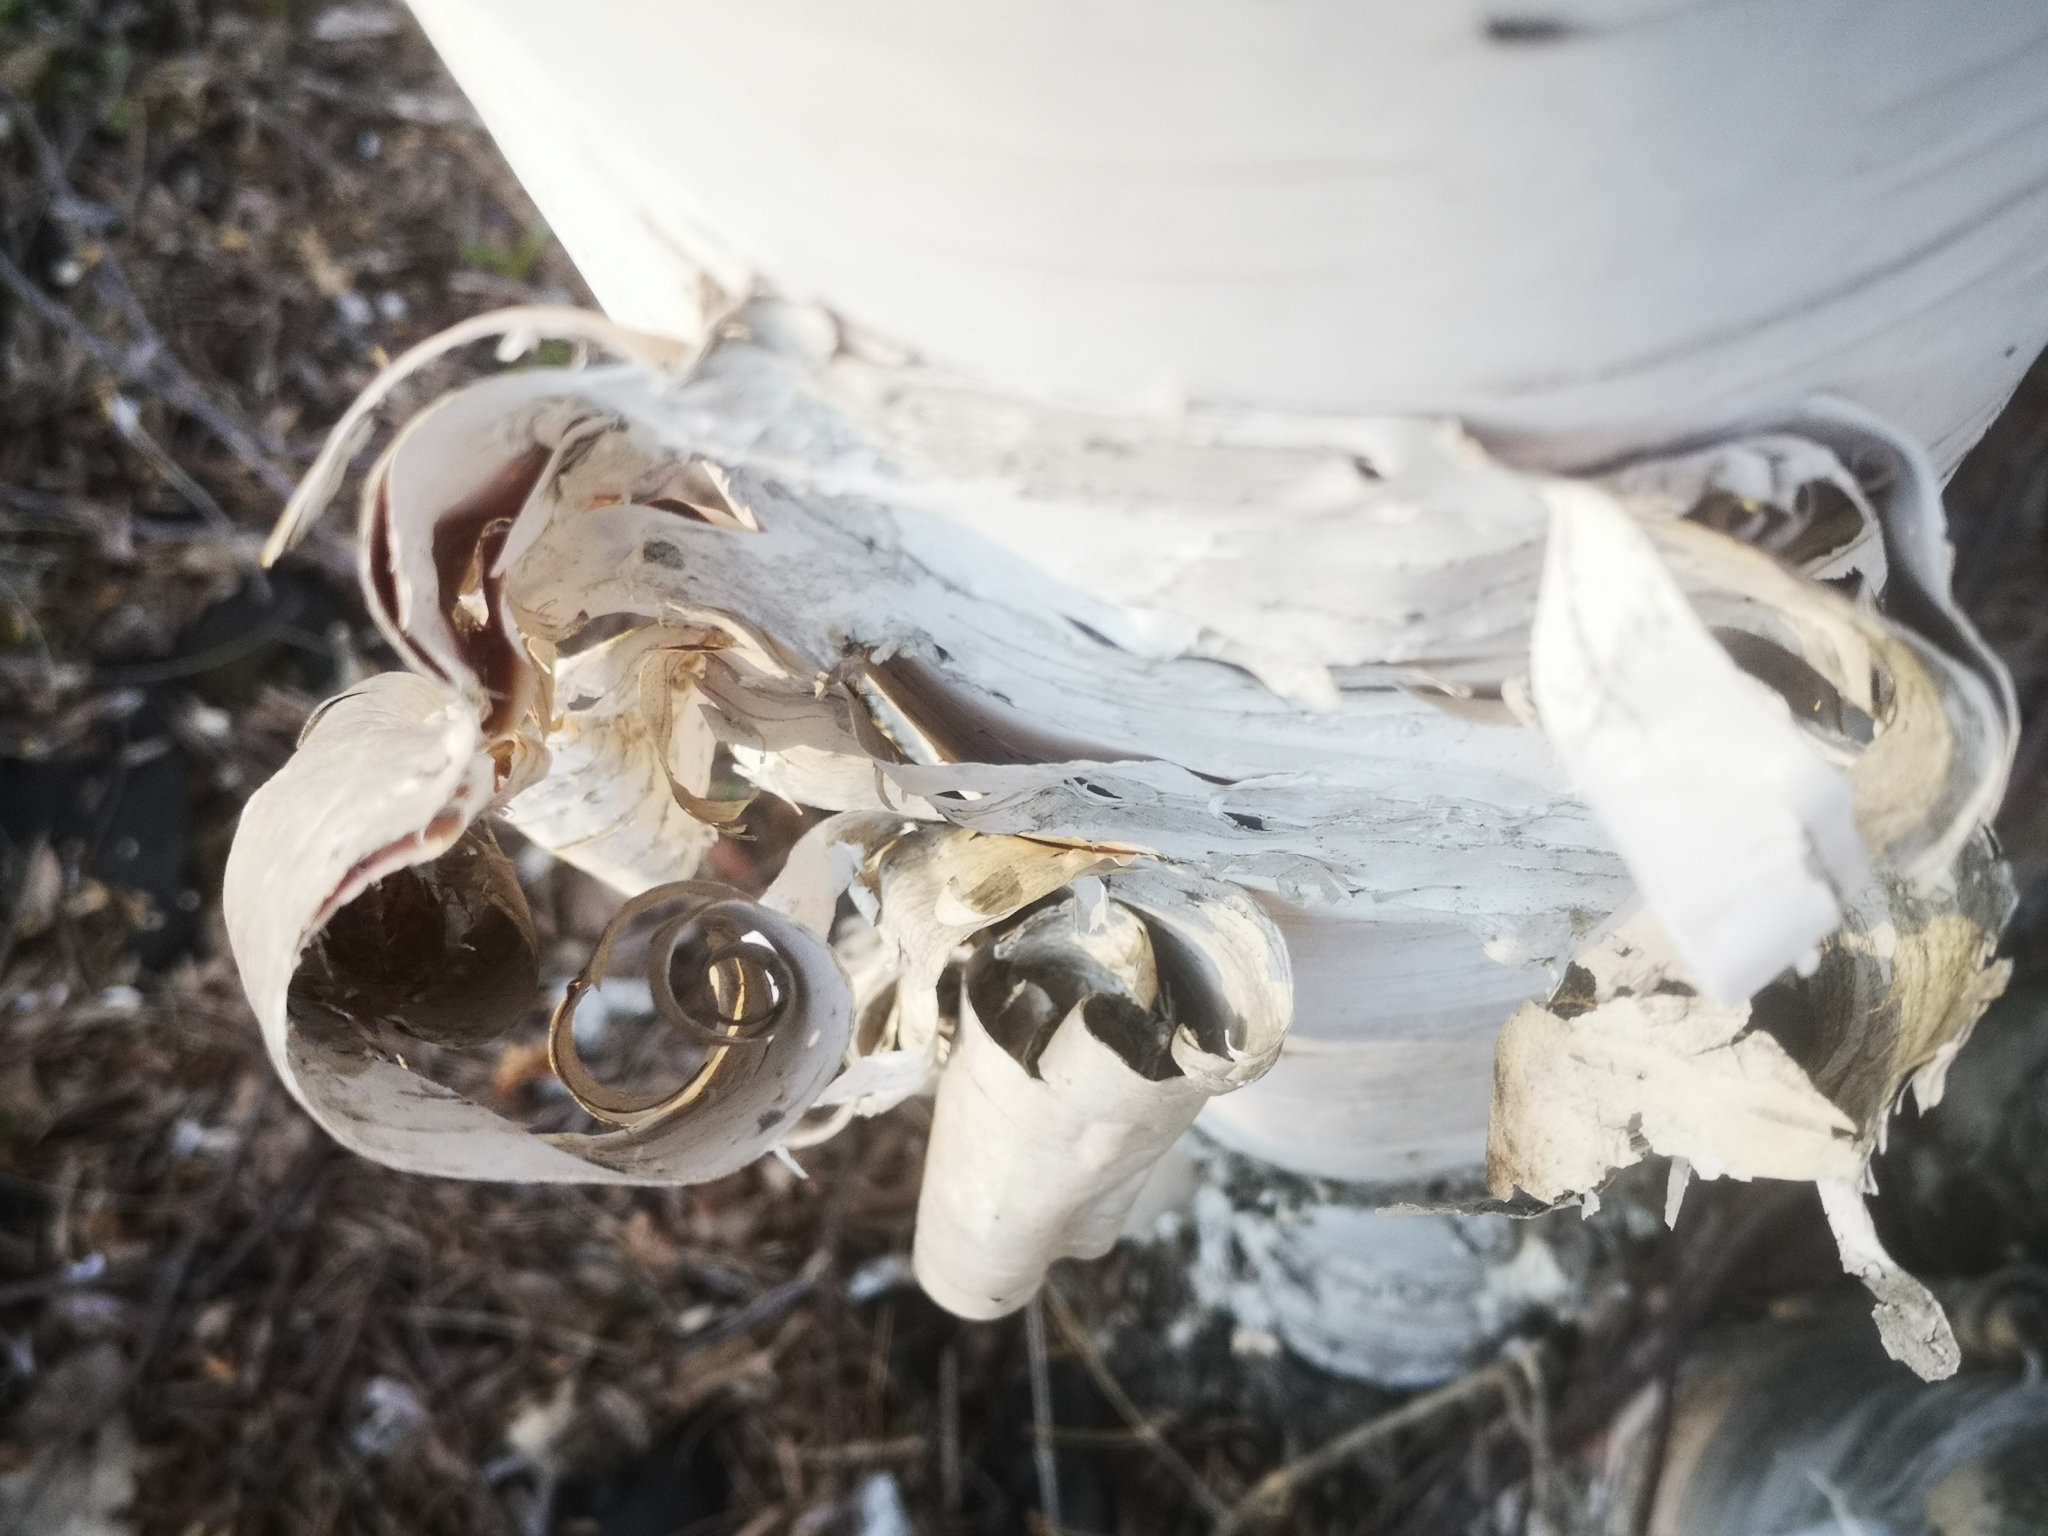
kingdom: Plantae
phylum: Tracheophyta
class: Magnoliopsida
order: Fagales
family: Betulaceae
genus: Betula
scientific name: Betula papyrifera
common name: Paper birch
